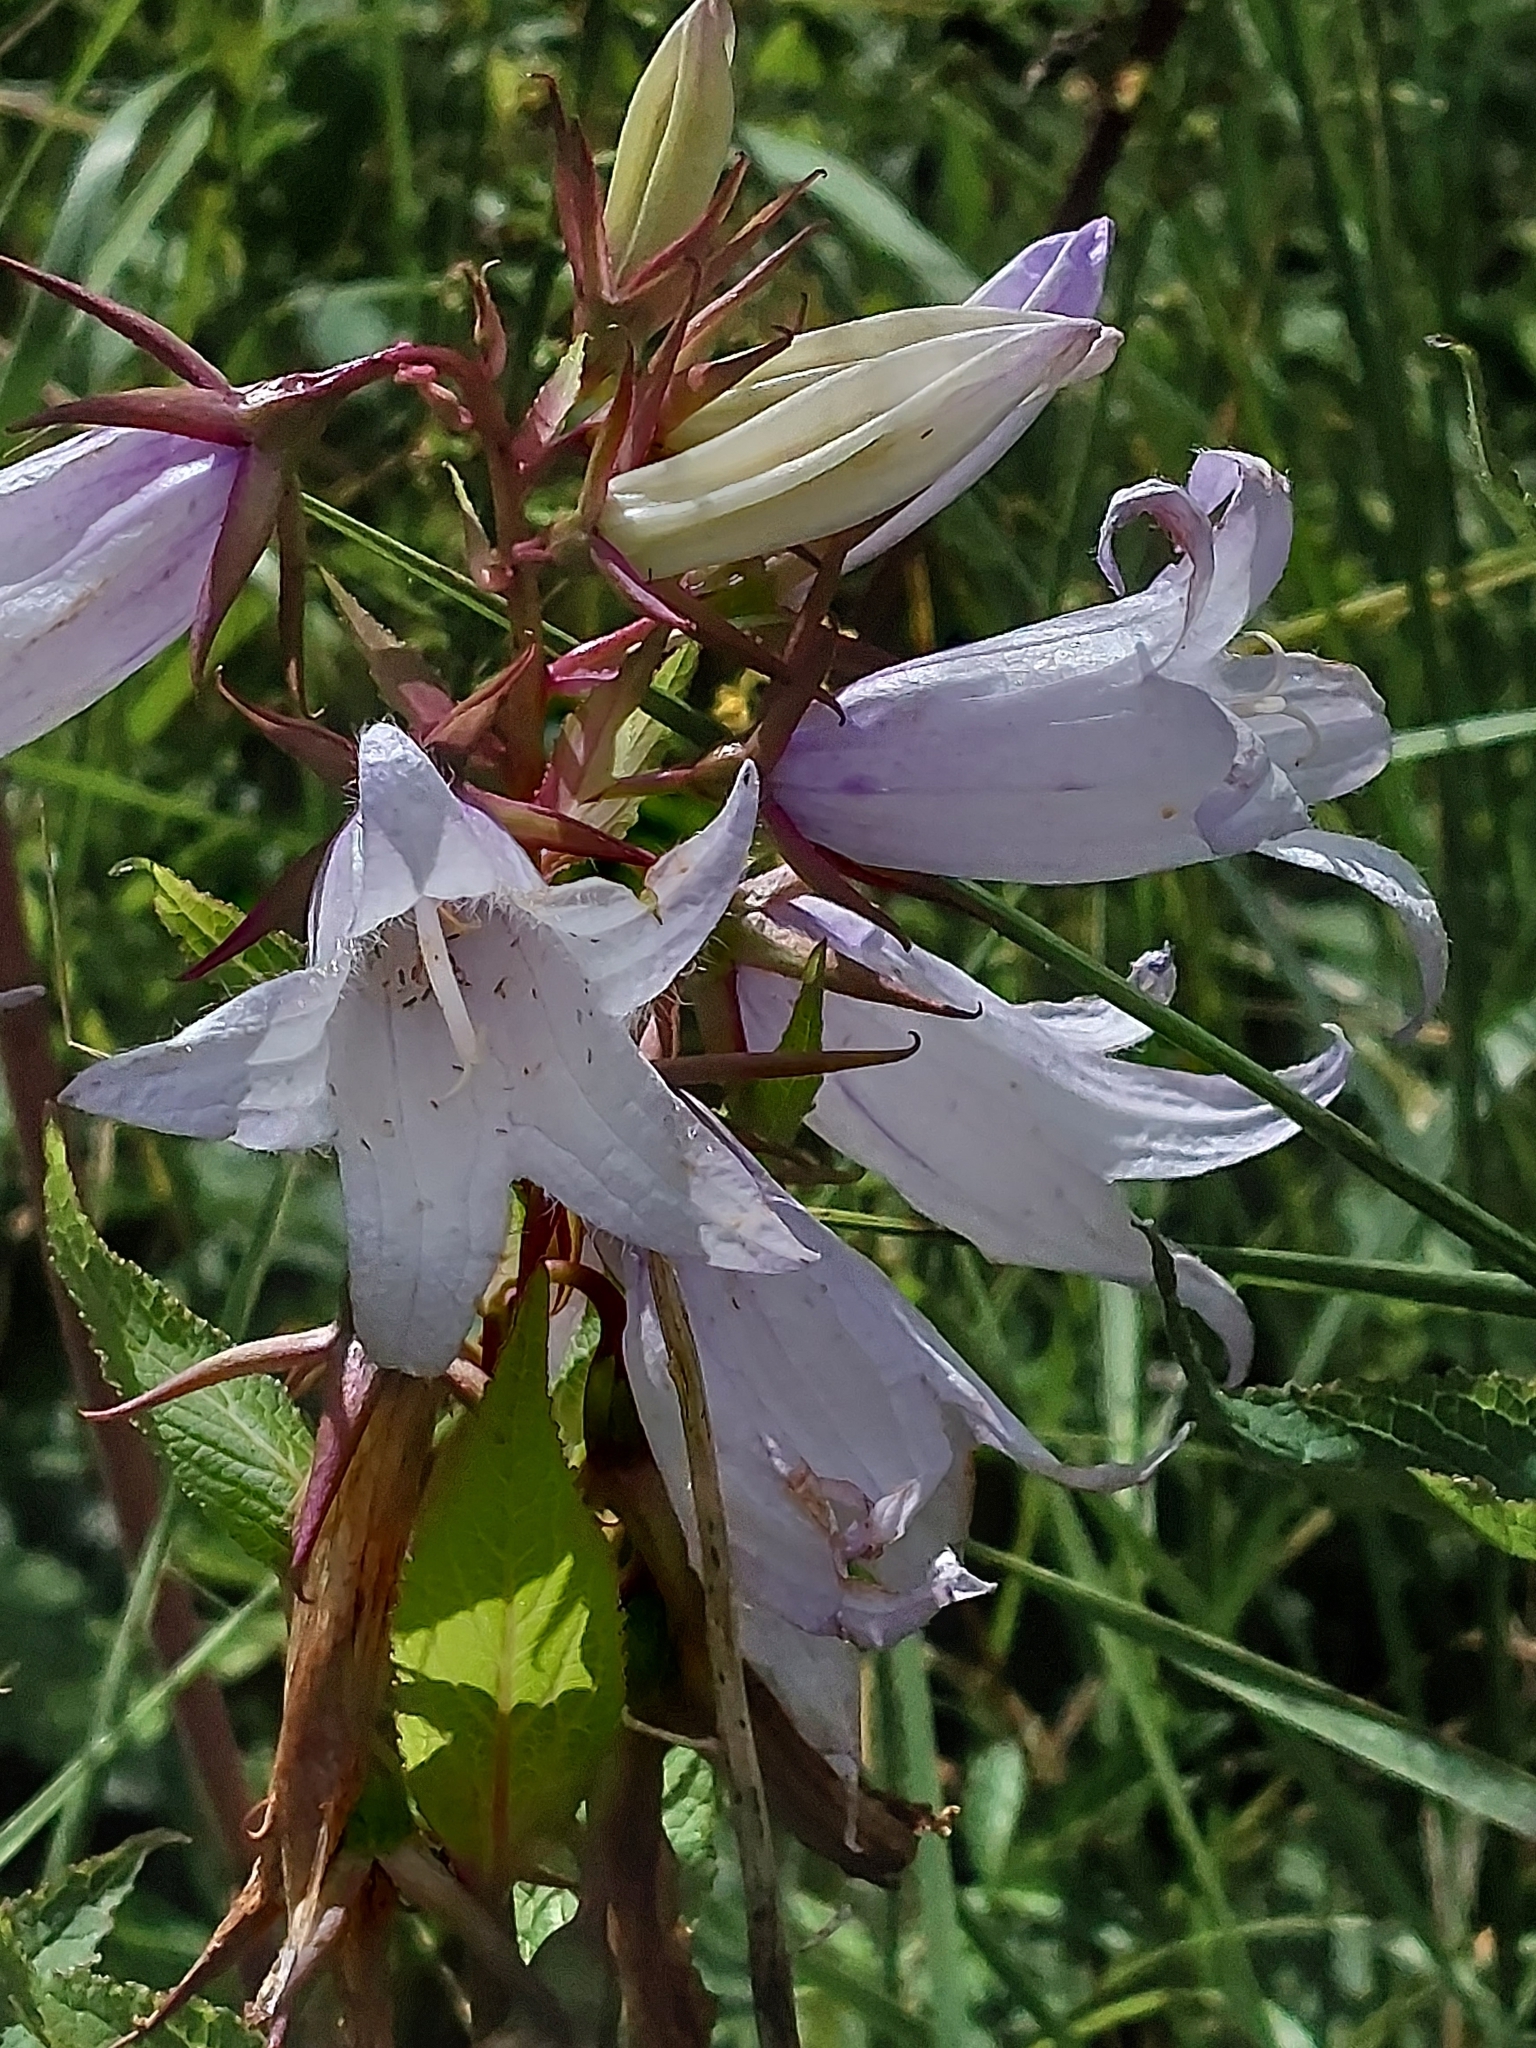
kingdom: Plantae
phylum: Tracheophyta
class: Magnoliopsida
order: Asterales
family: Campanulaceae
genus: Campanula
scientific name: Campanula latifolia
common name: Giant bellflower
